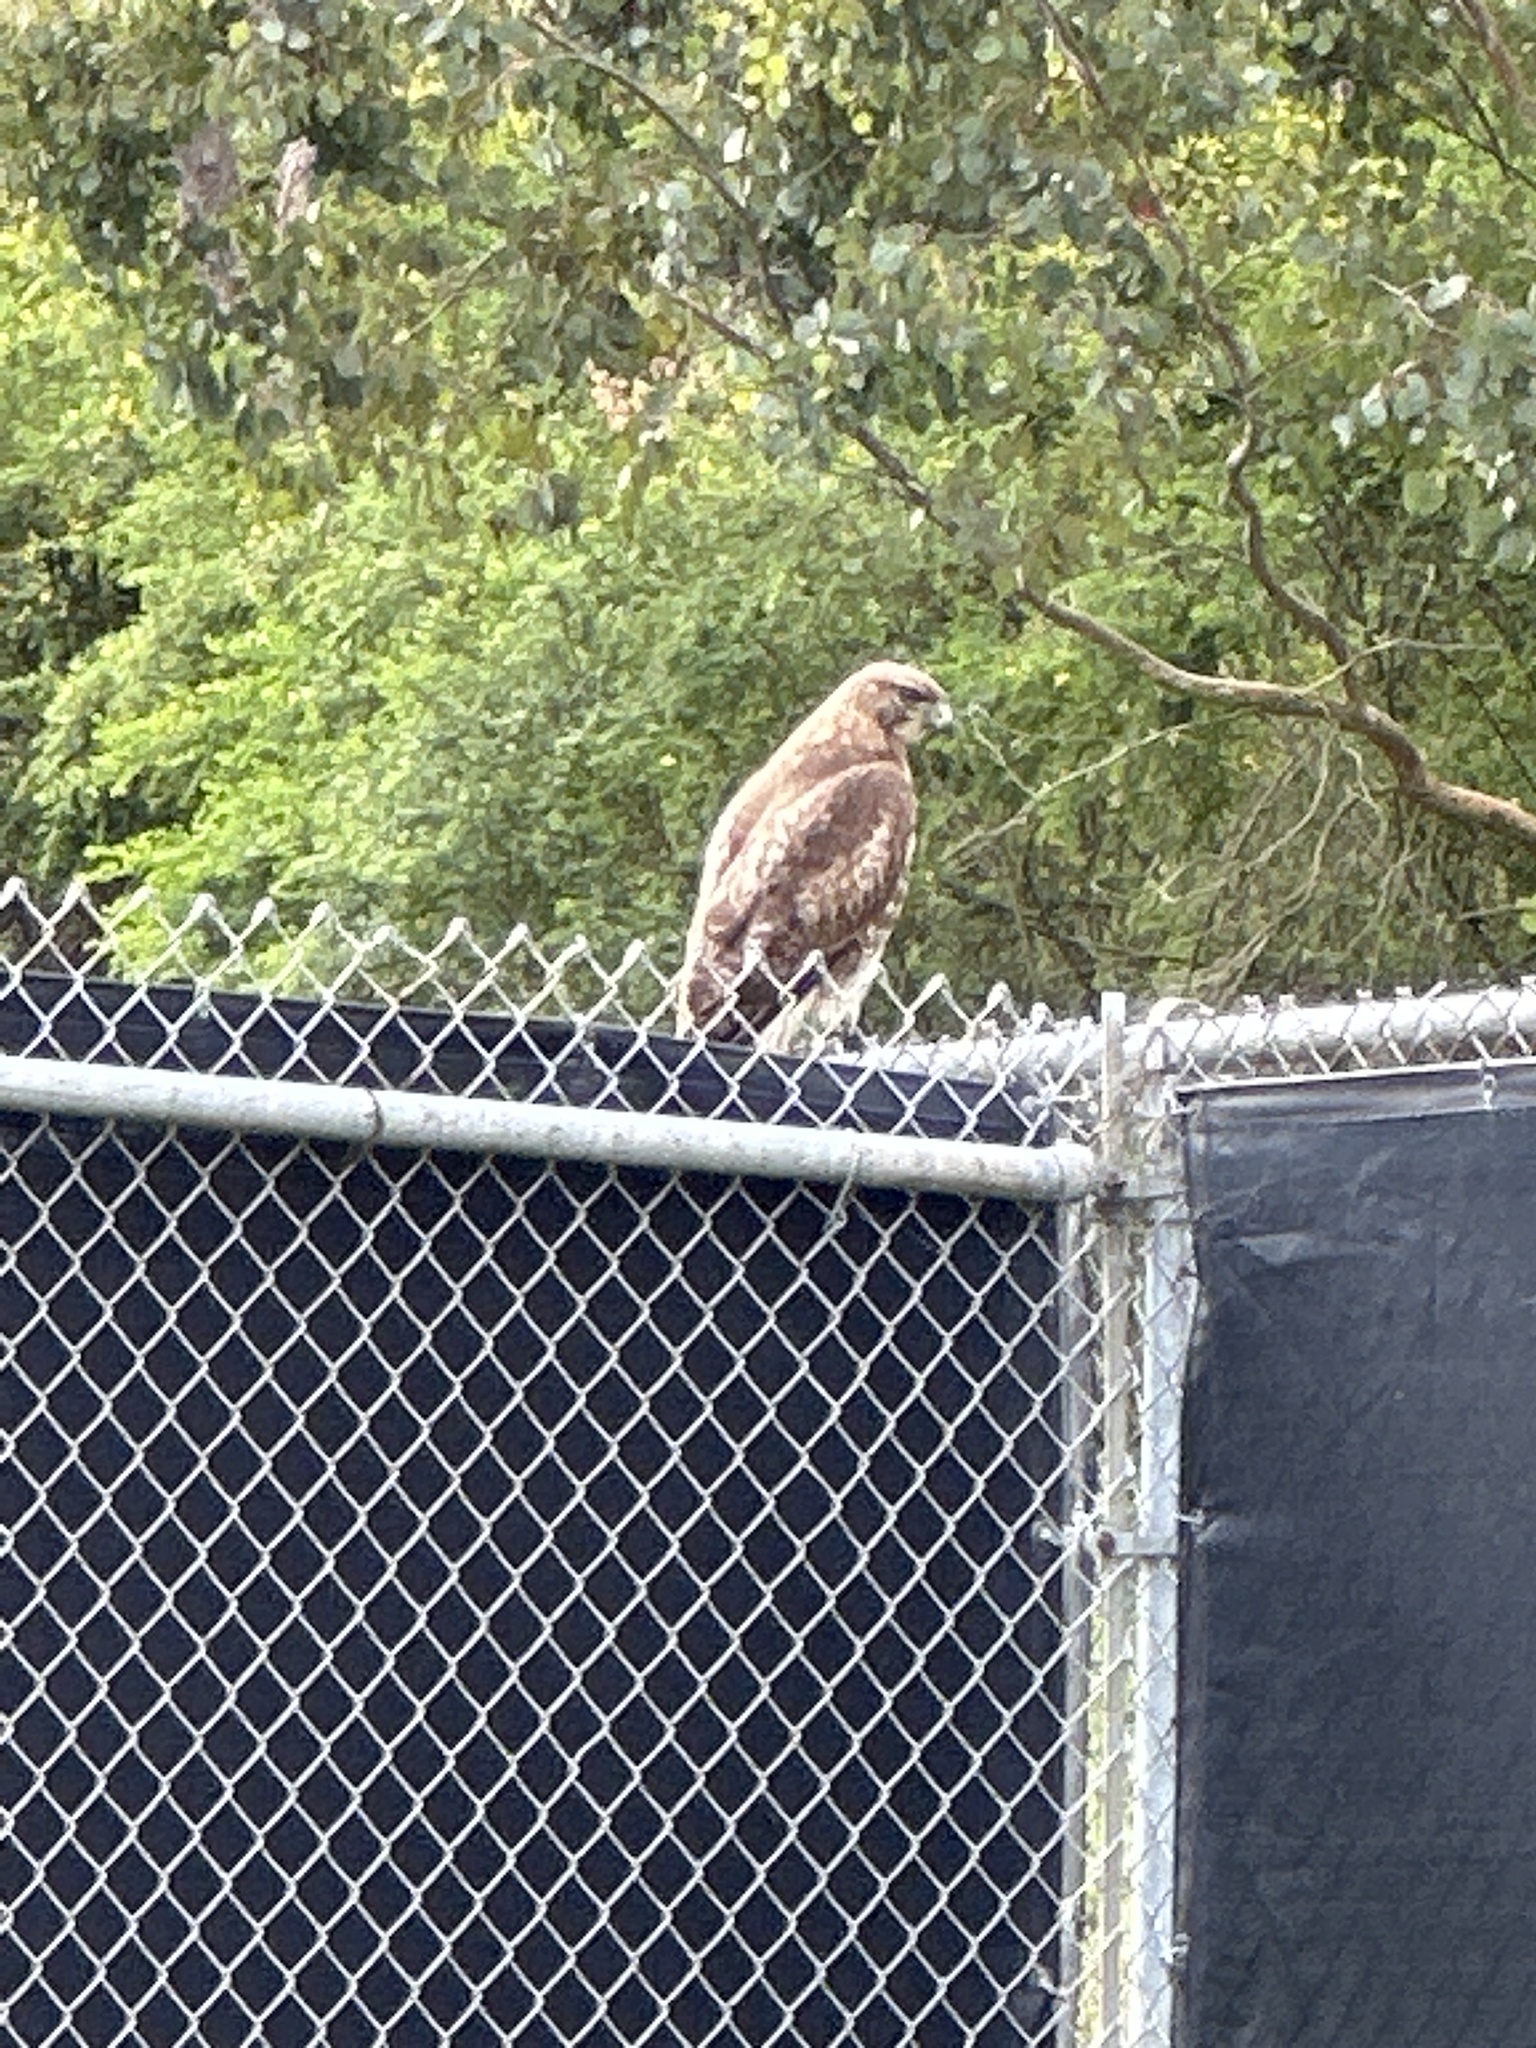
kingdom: Animalia
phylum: Chordata
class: Aves
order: Accipitriformes
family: Accipitridae
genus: Buteo
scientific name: Buteo jamaicensis
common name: Red-tailed hawk
